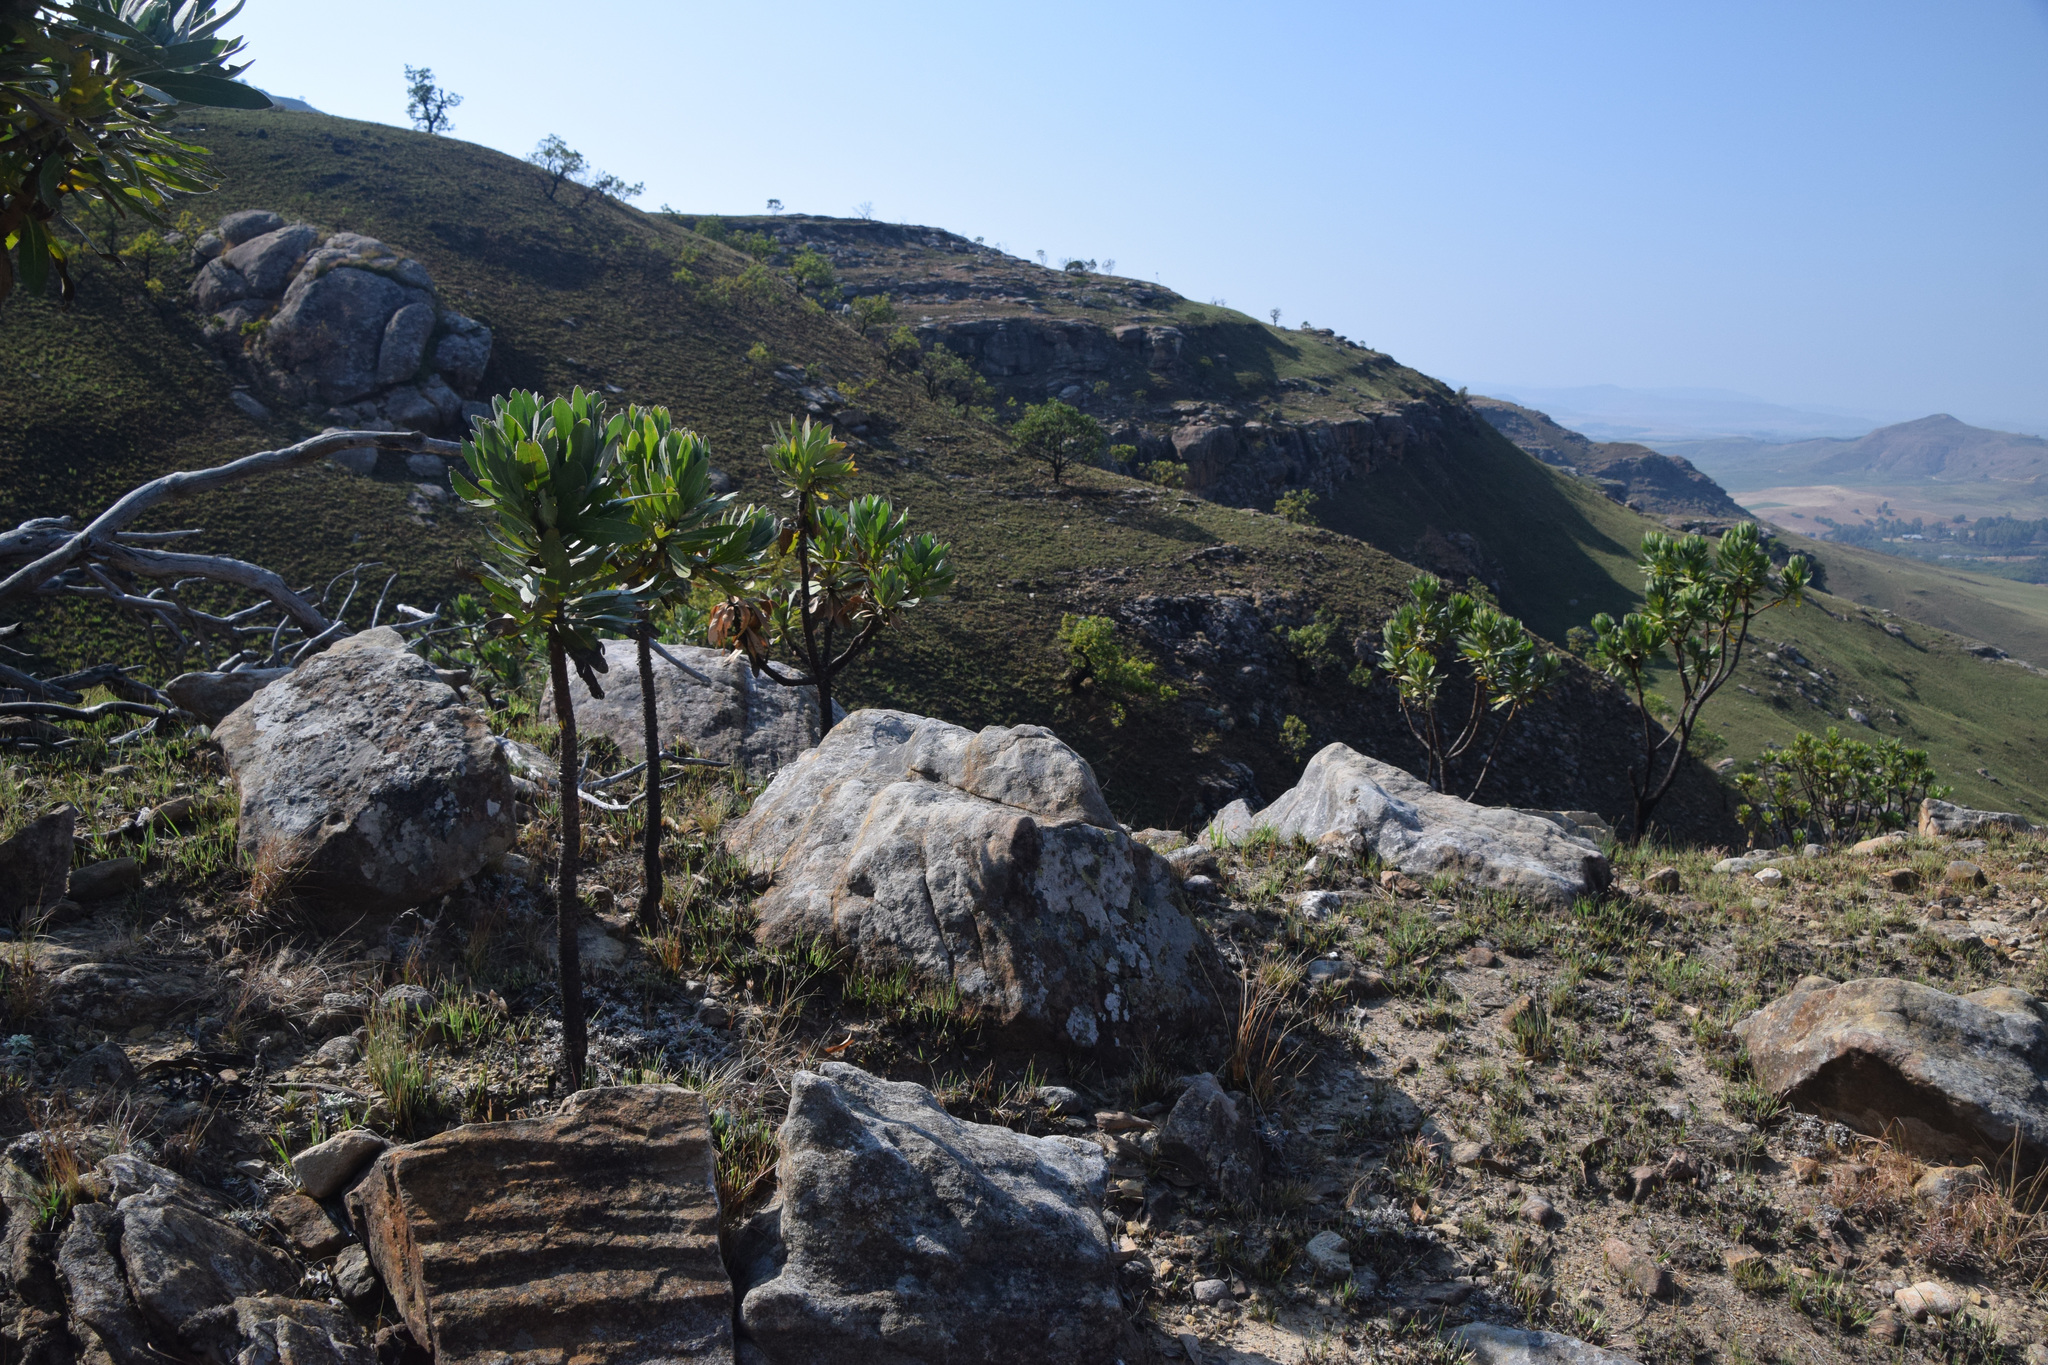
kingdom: Plantae
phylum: Tracheophyta
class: Magnoliopsida
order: Proteales
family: Proteaceae
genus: Protea
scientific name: Protea roupelliae
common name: Silver sugarbush
